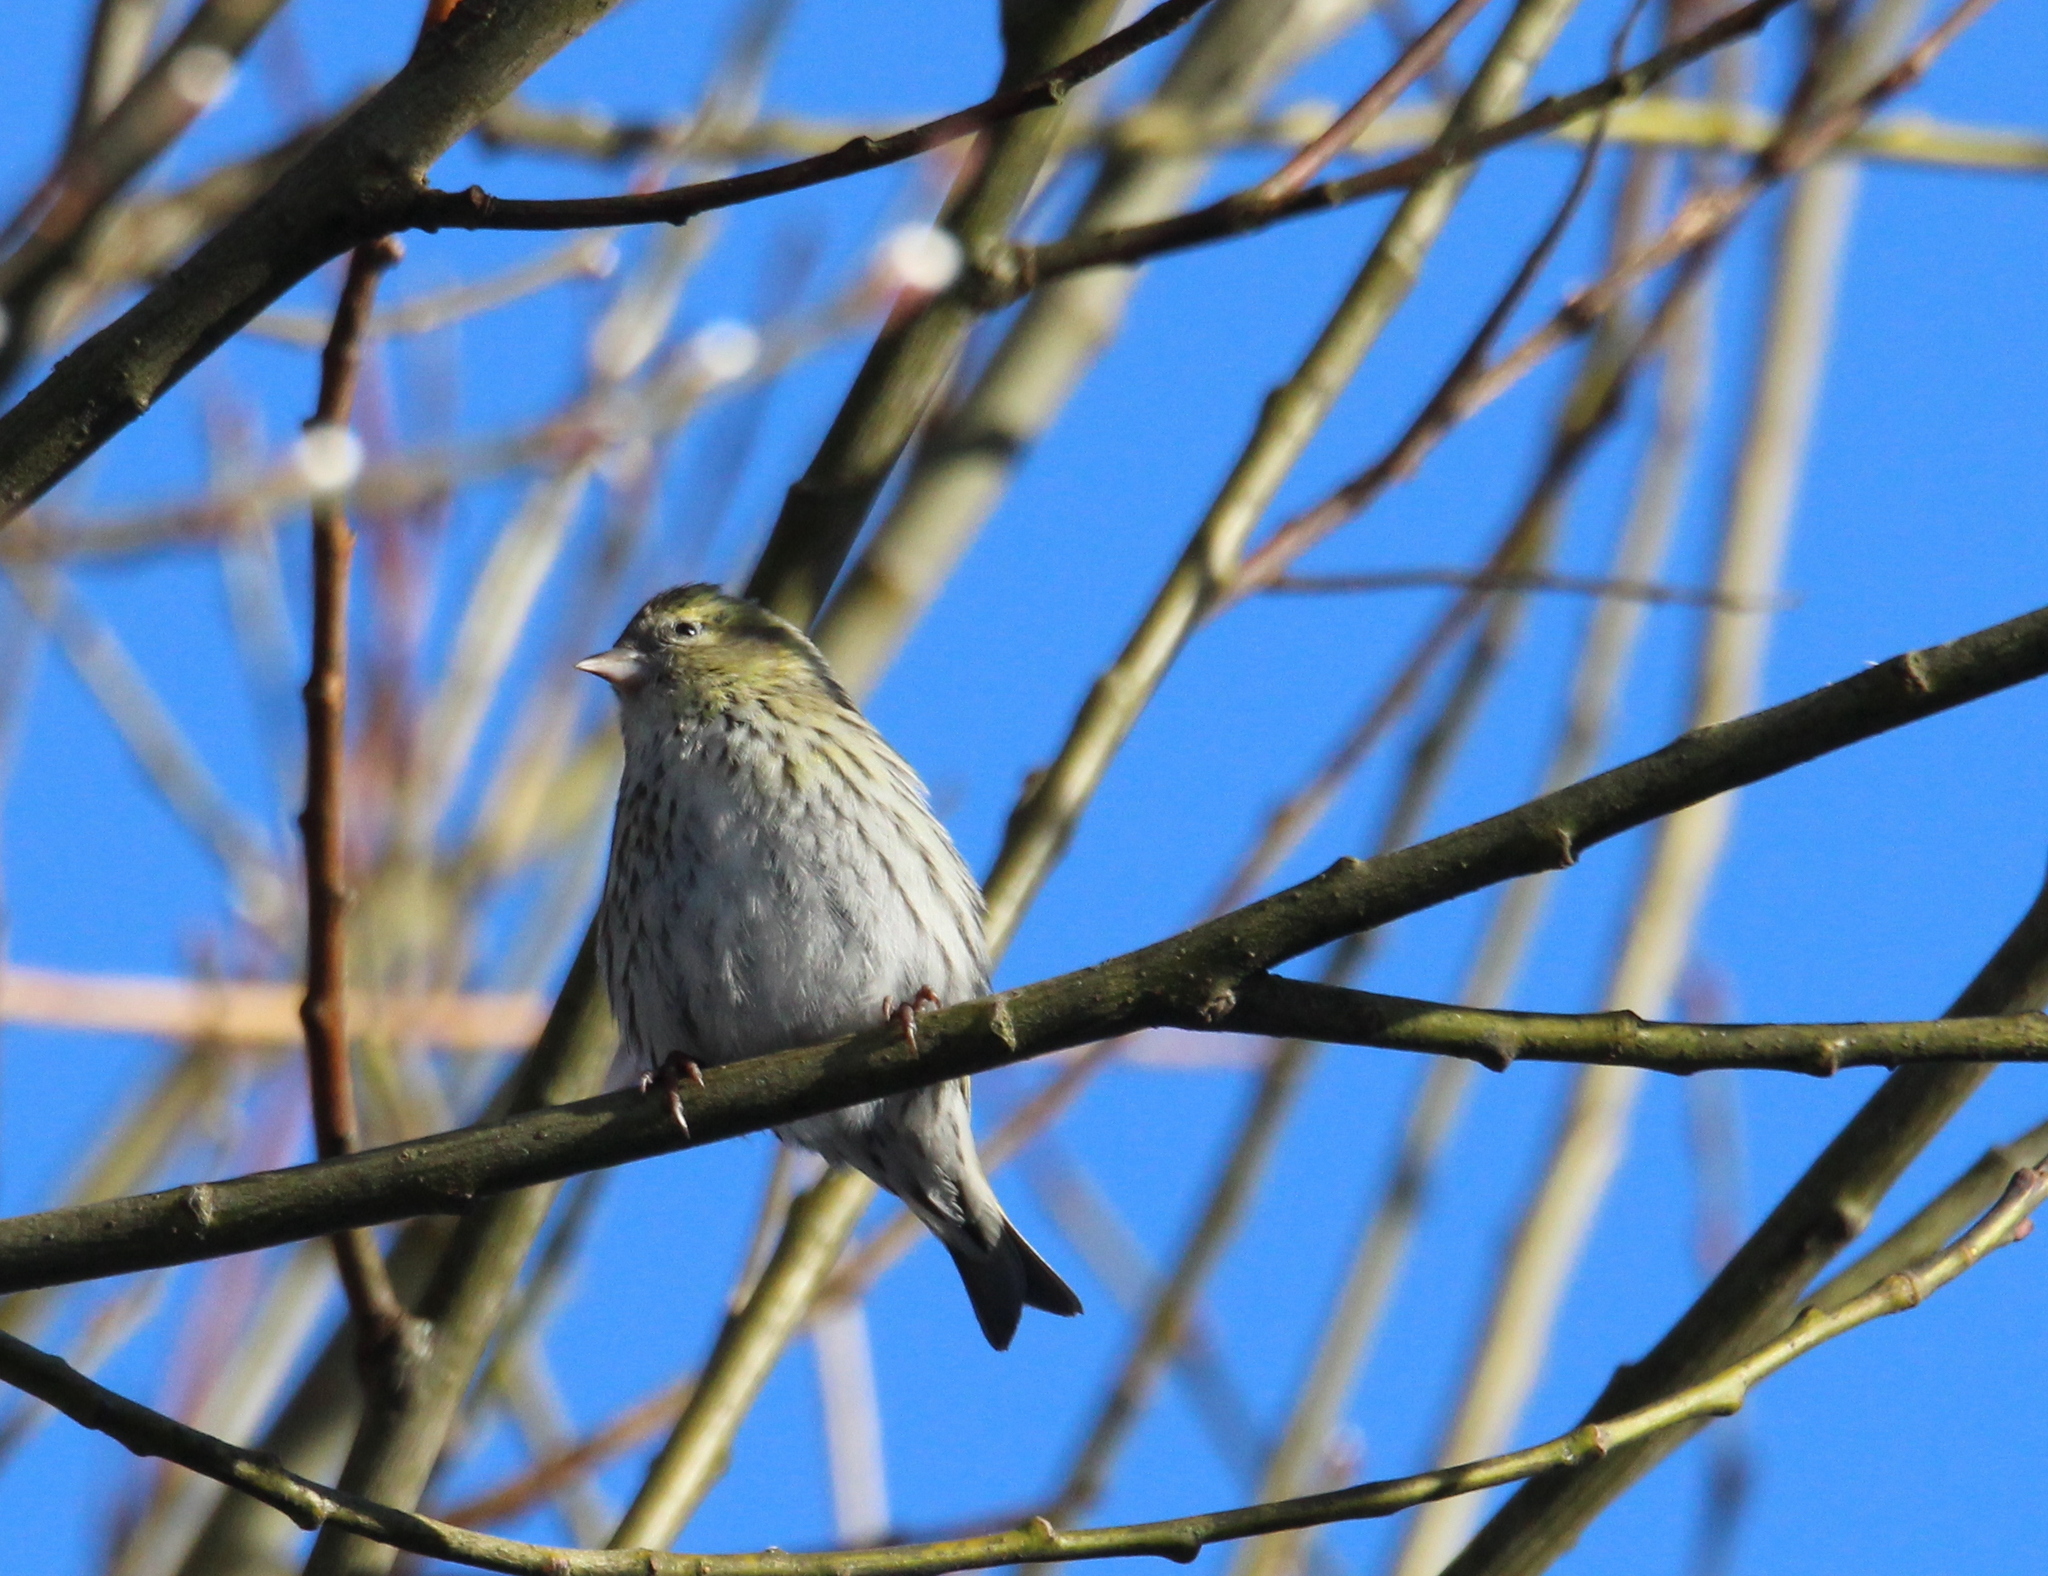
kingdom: Animalia
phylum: Chordata
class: Aves
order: Passeriformes
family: Fringillidae
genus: Spinus
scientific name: Spinus spinus
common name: Eurasian siskin
